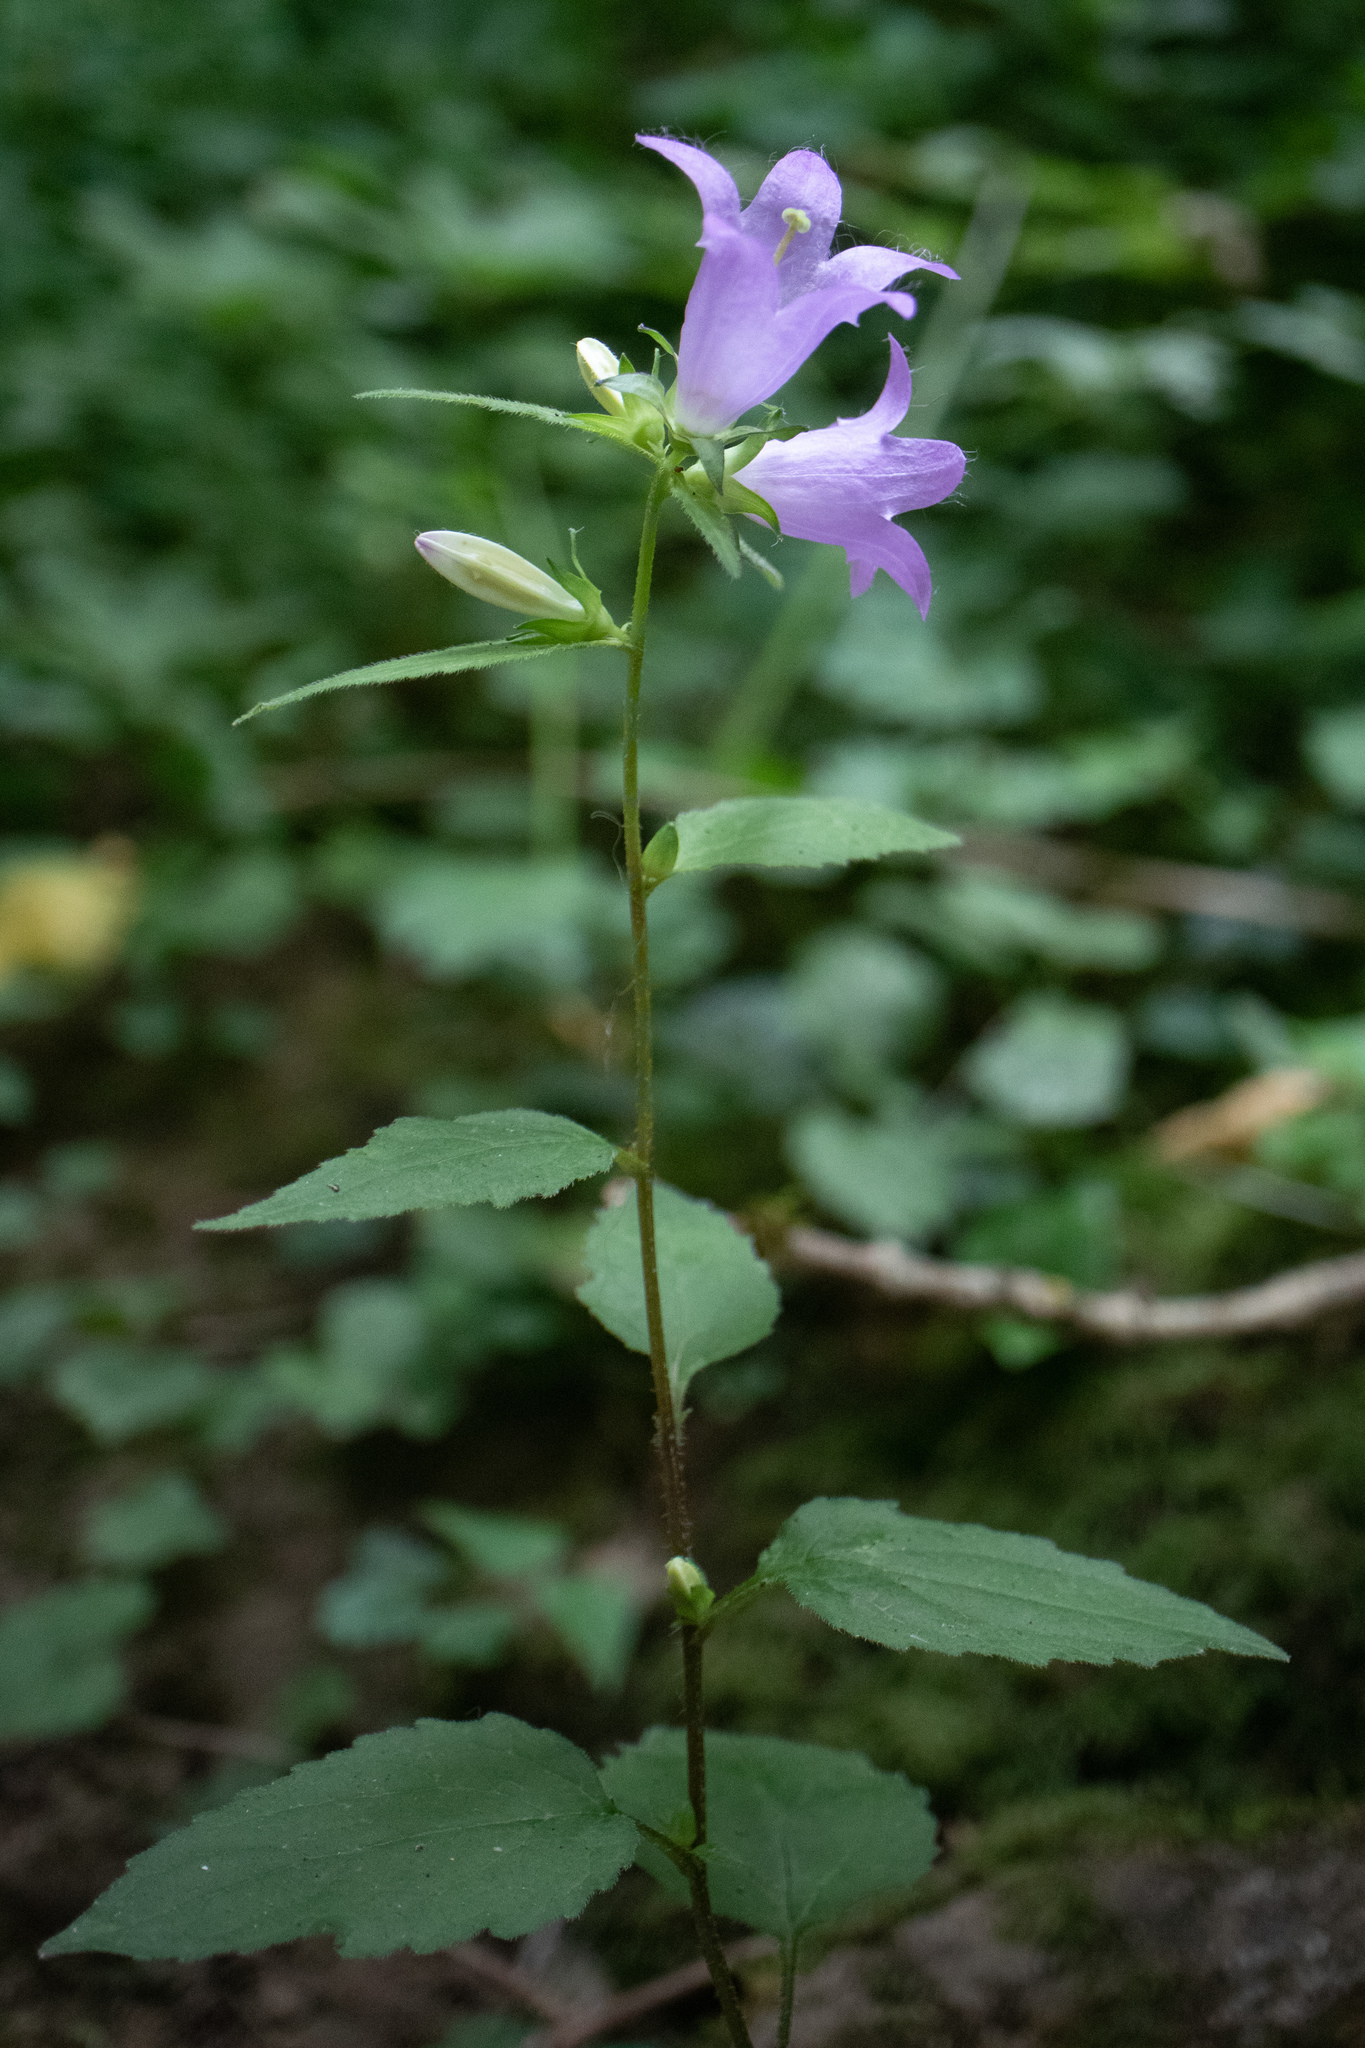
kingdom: Plantae
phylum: Tracheophyta
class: Magnoliopsida
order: Asterales
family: Campanulaceae
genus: Campanula
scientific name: Campanula trachelium
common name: Nettle-leaved bellflower
